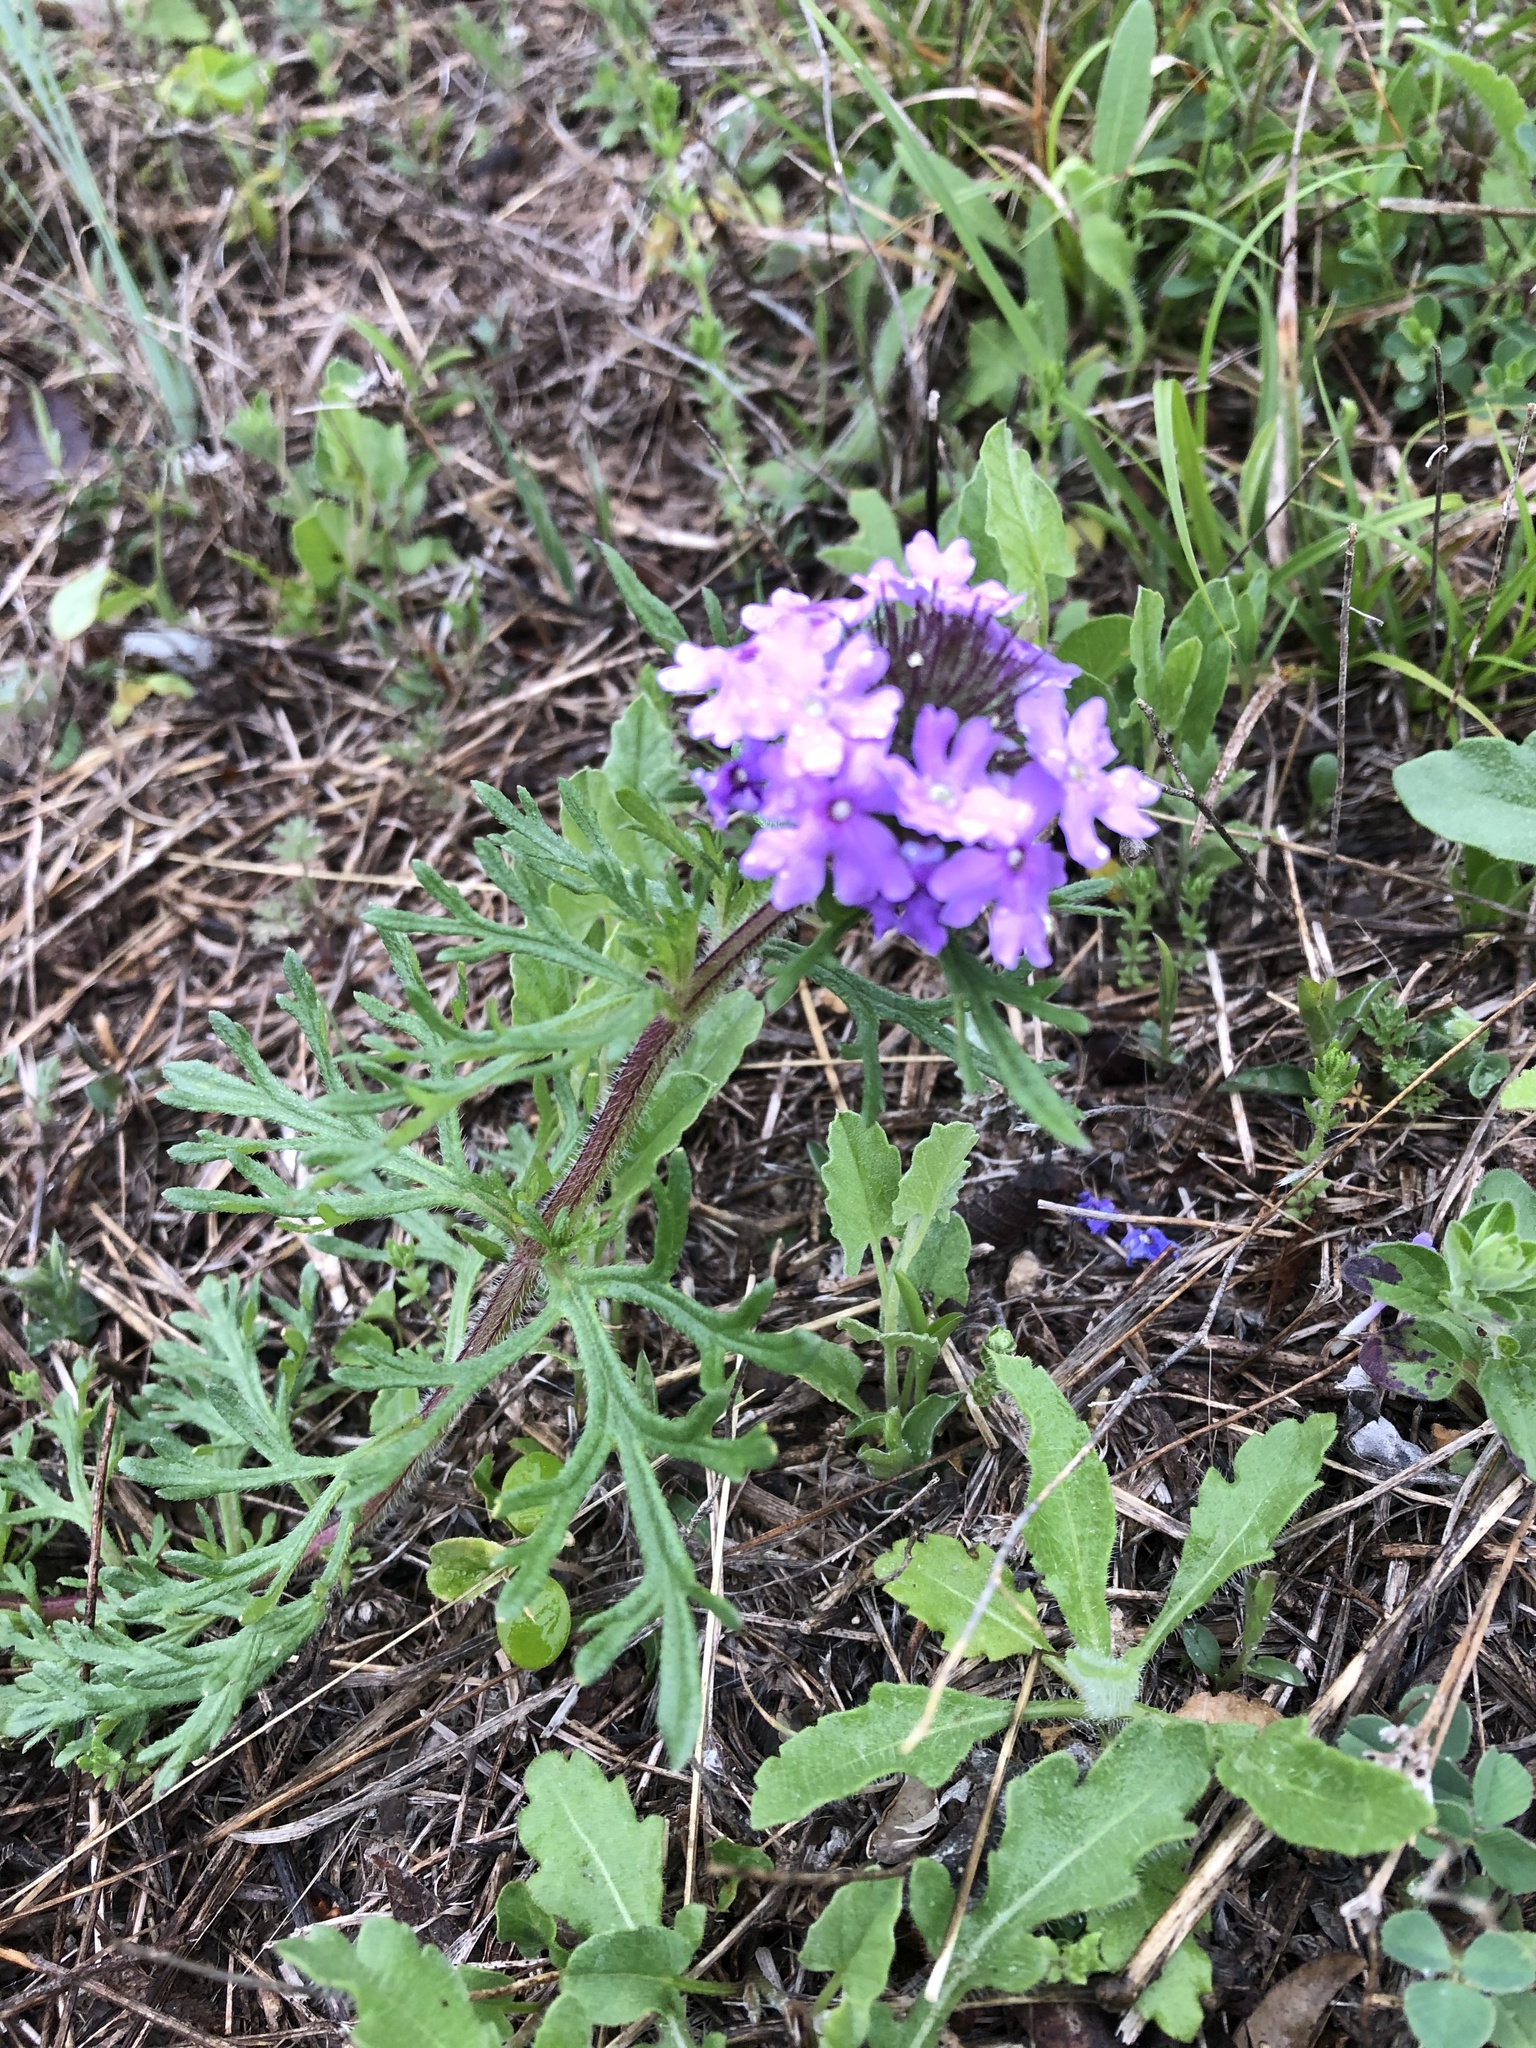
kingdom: Plantae
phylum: Tracheophyta
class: Magnoliopsida
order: Lamiales
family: Verbenaceae
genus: Verbena
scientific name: Verbena bipinnatifida
